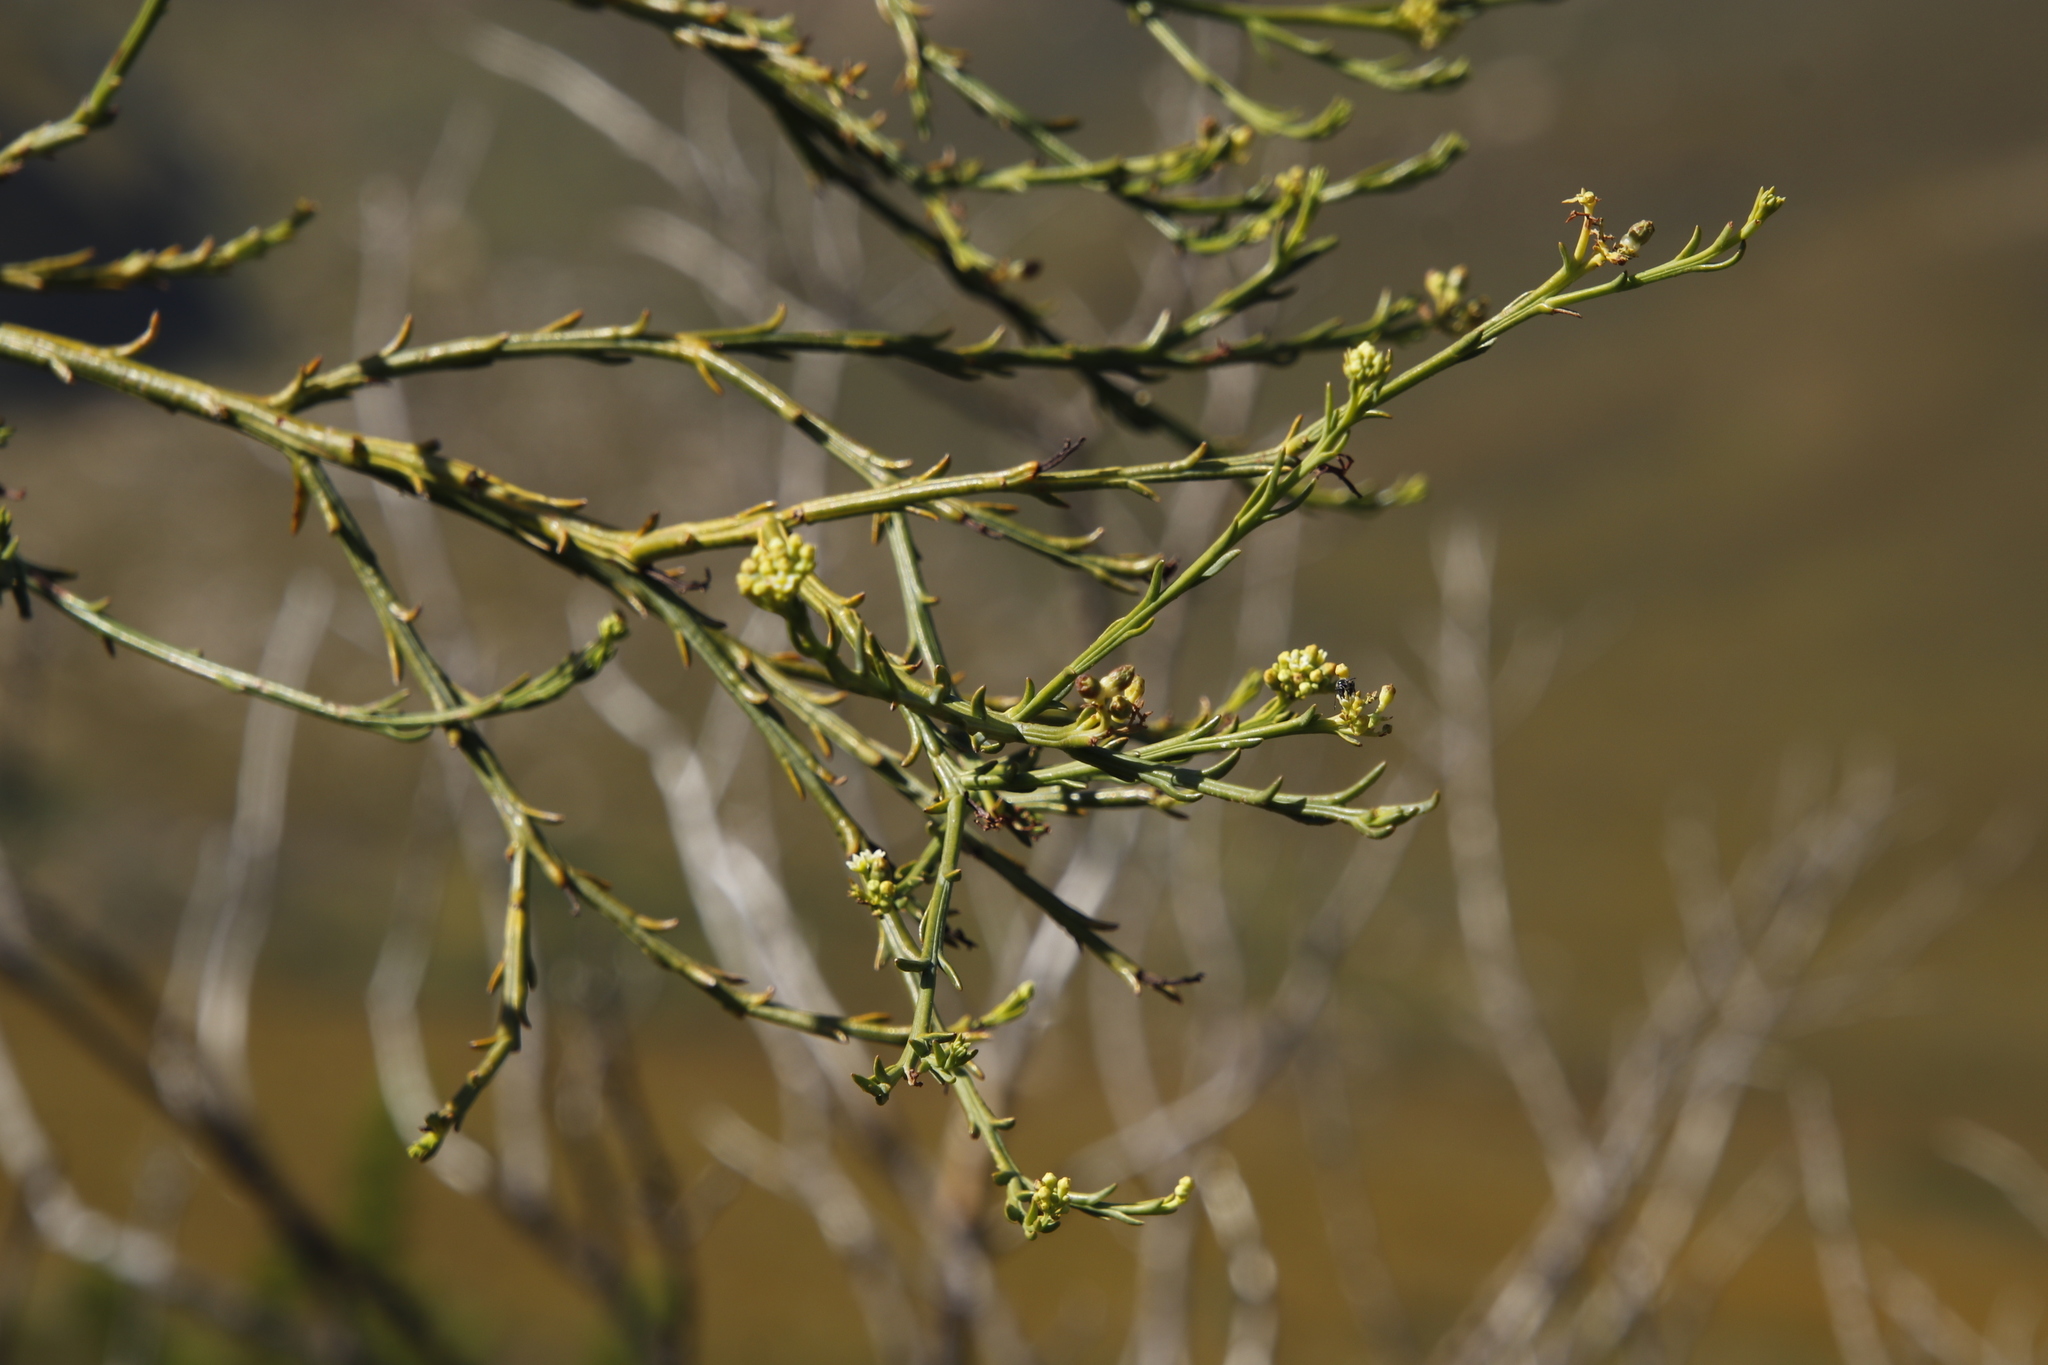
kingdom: Plantae
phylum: Tracheophyta
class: Magnoliopsida
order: Santalales
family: Thesiaceae
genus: Thesium
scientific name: Thesium strictum
